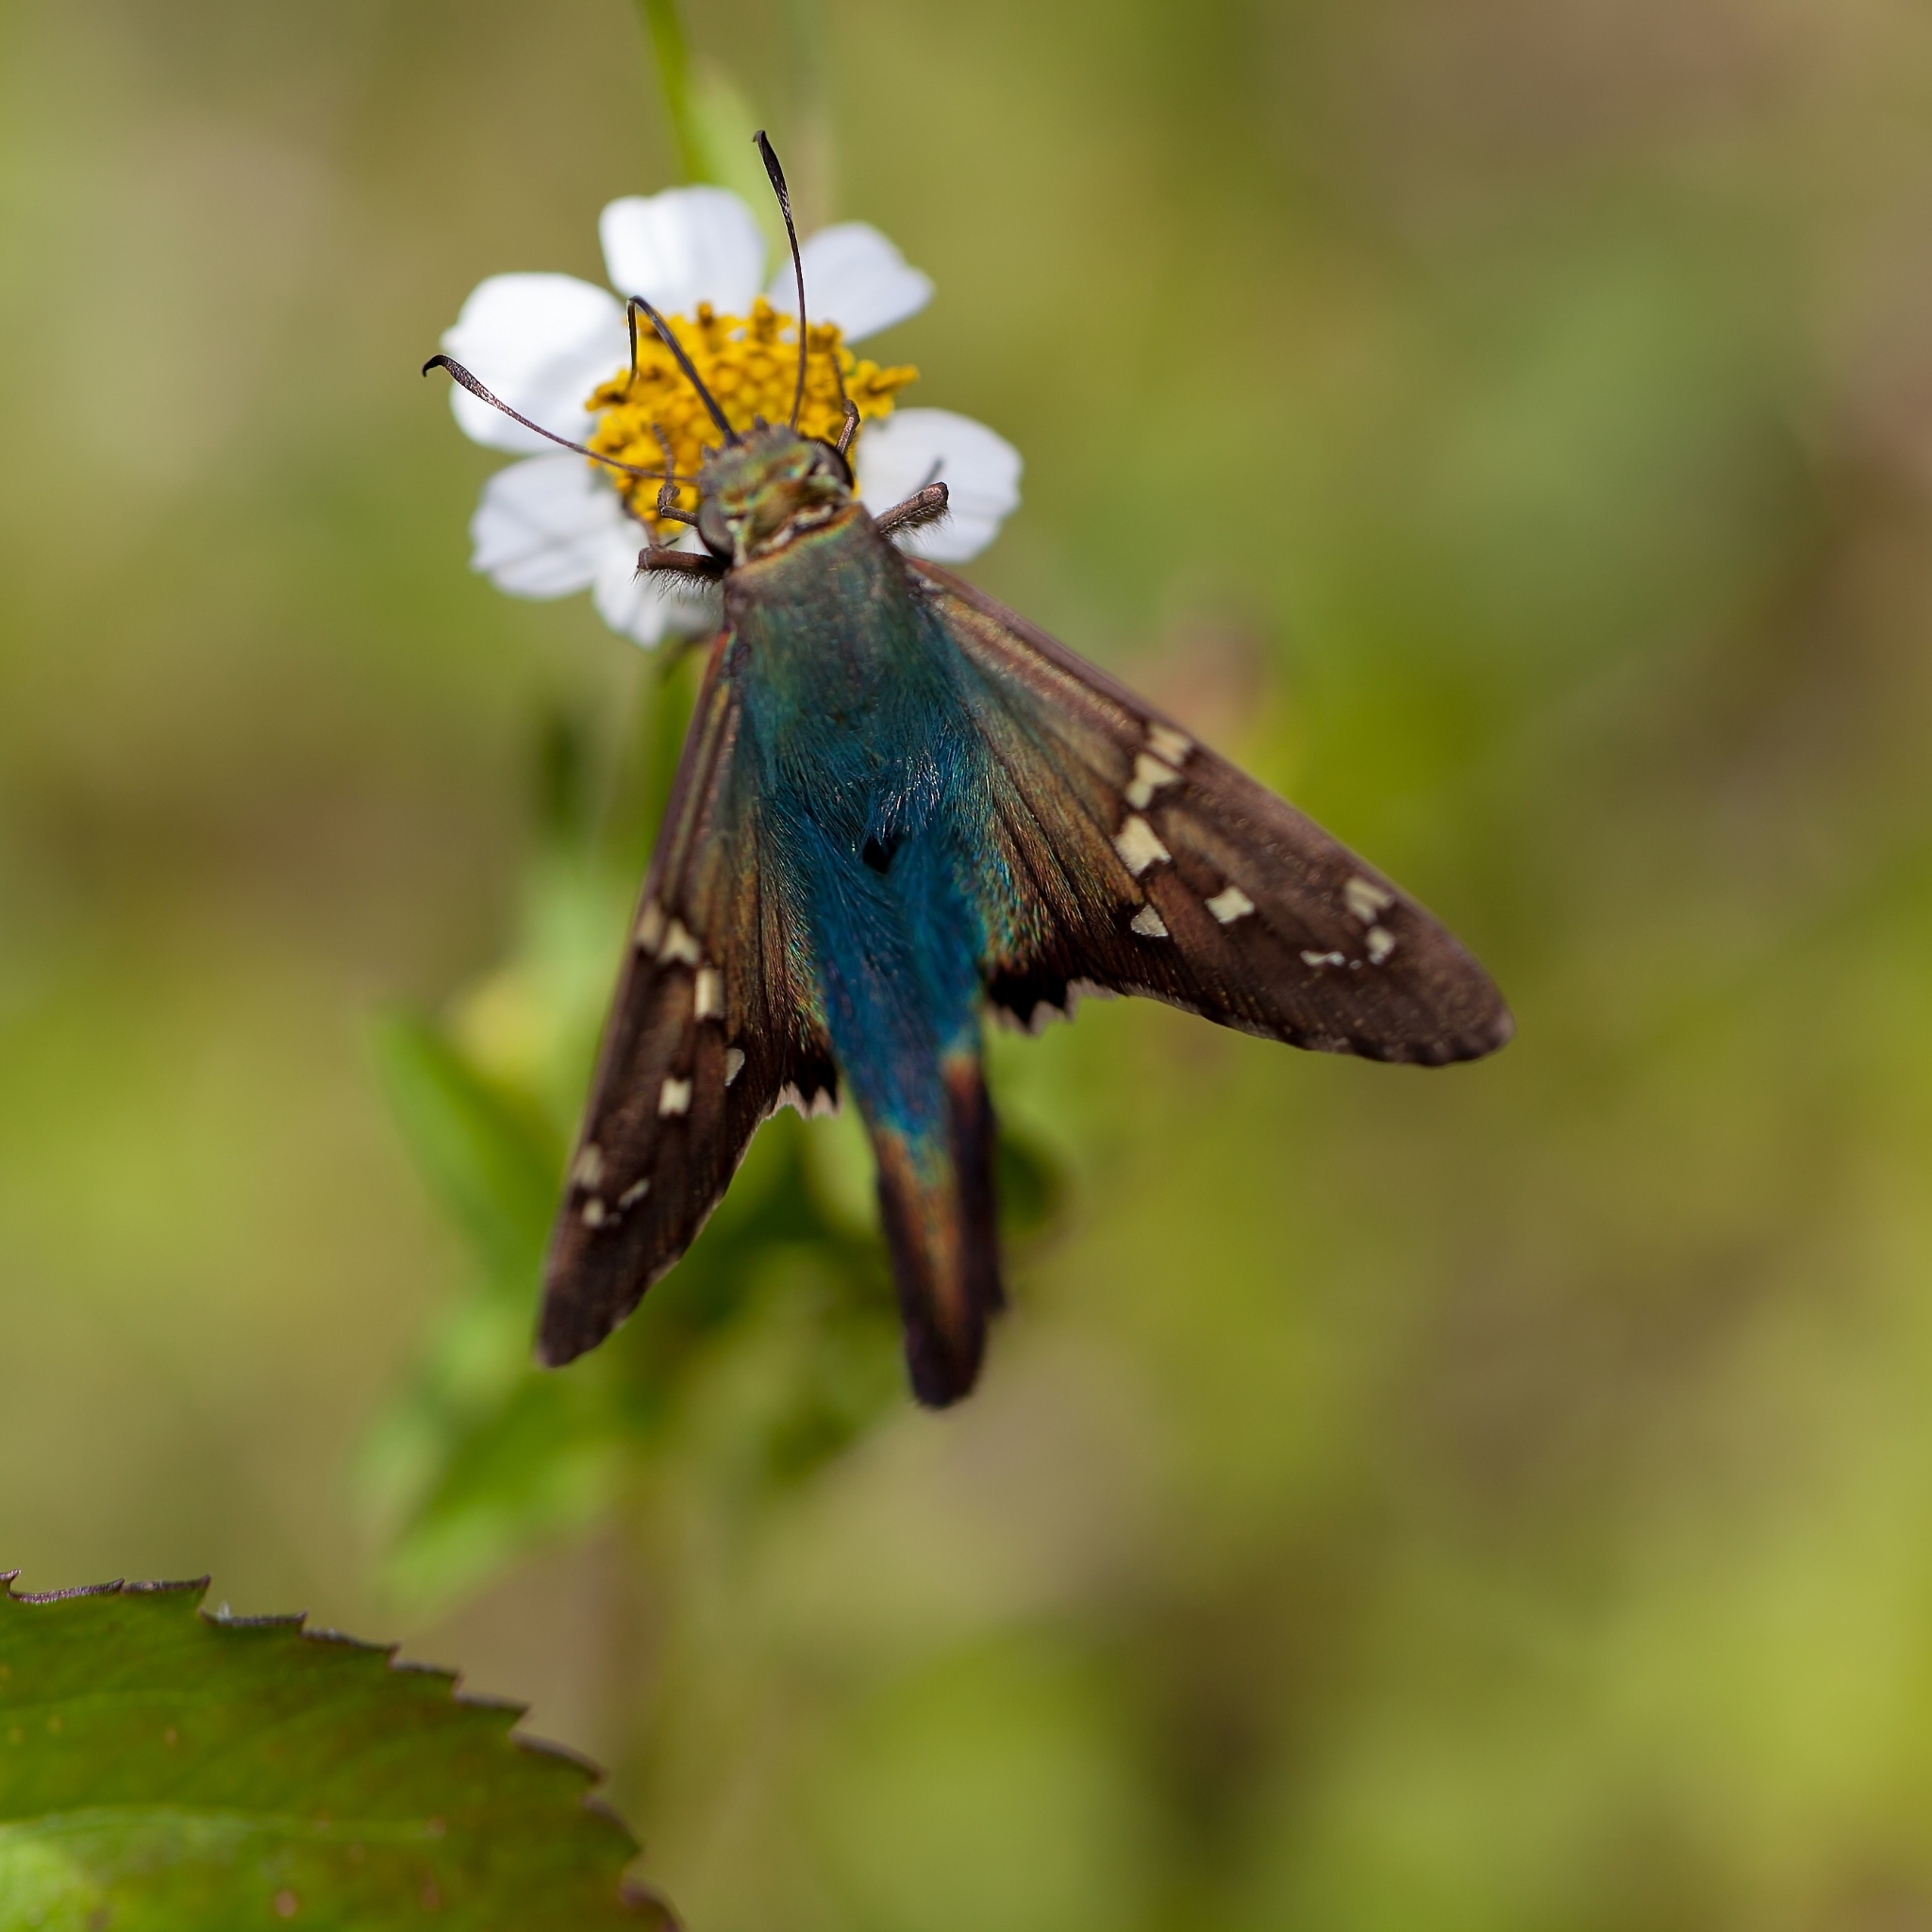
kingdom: Animalia
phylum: Arthropoda
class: Insecta
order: Lepidoptera
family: Hesperiidae
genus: Urbanus
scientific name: Urbanus proteus
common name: Long-tailed skipper
